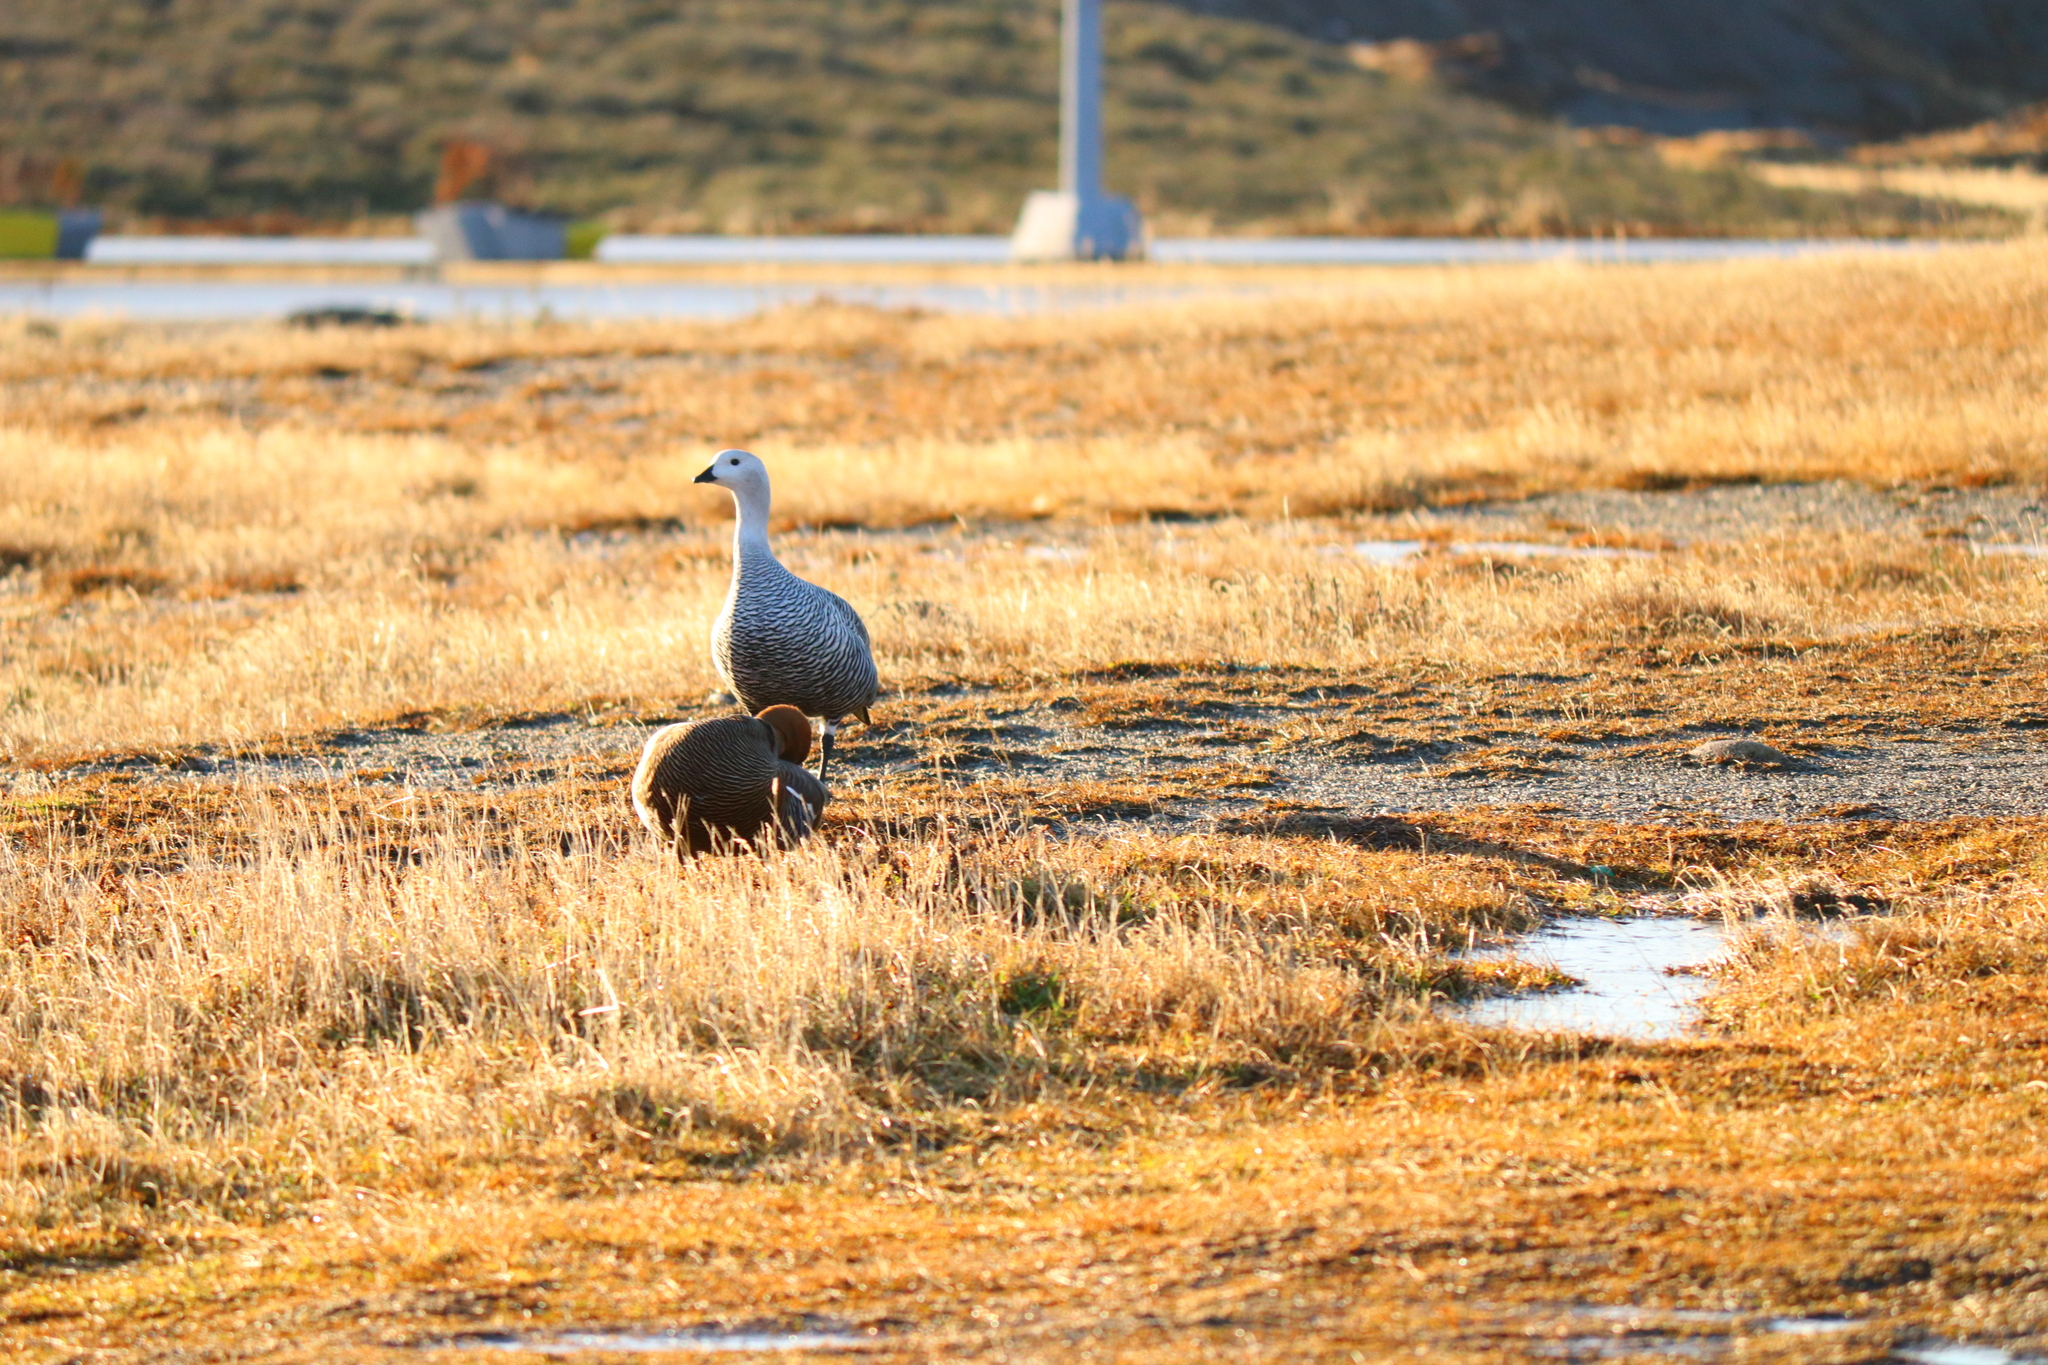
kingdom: Animalia
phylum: Chordata
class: Aves
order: Anseriformes
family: Anatidae
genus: Chloephaga
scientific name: Chloephaga picta
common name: Upland goose
